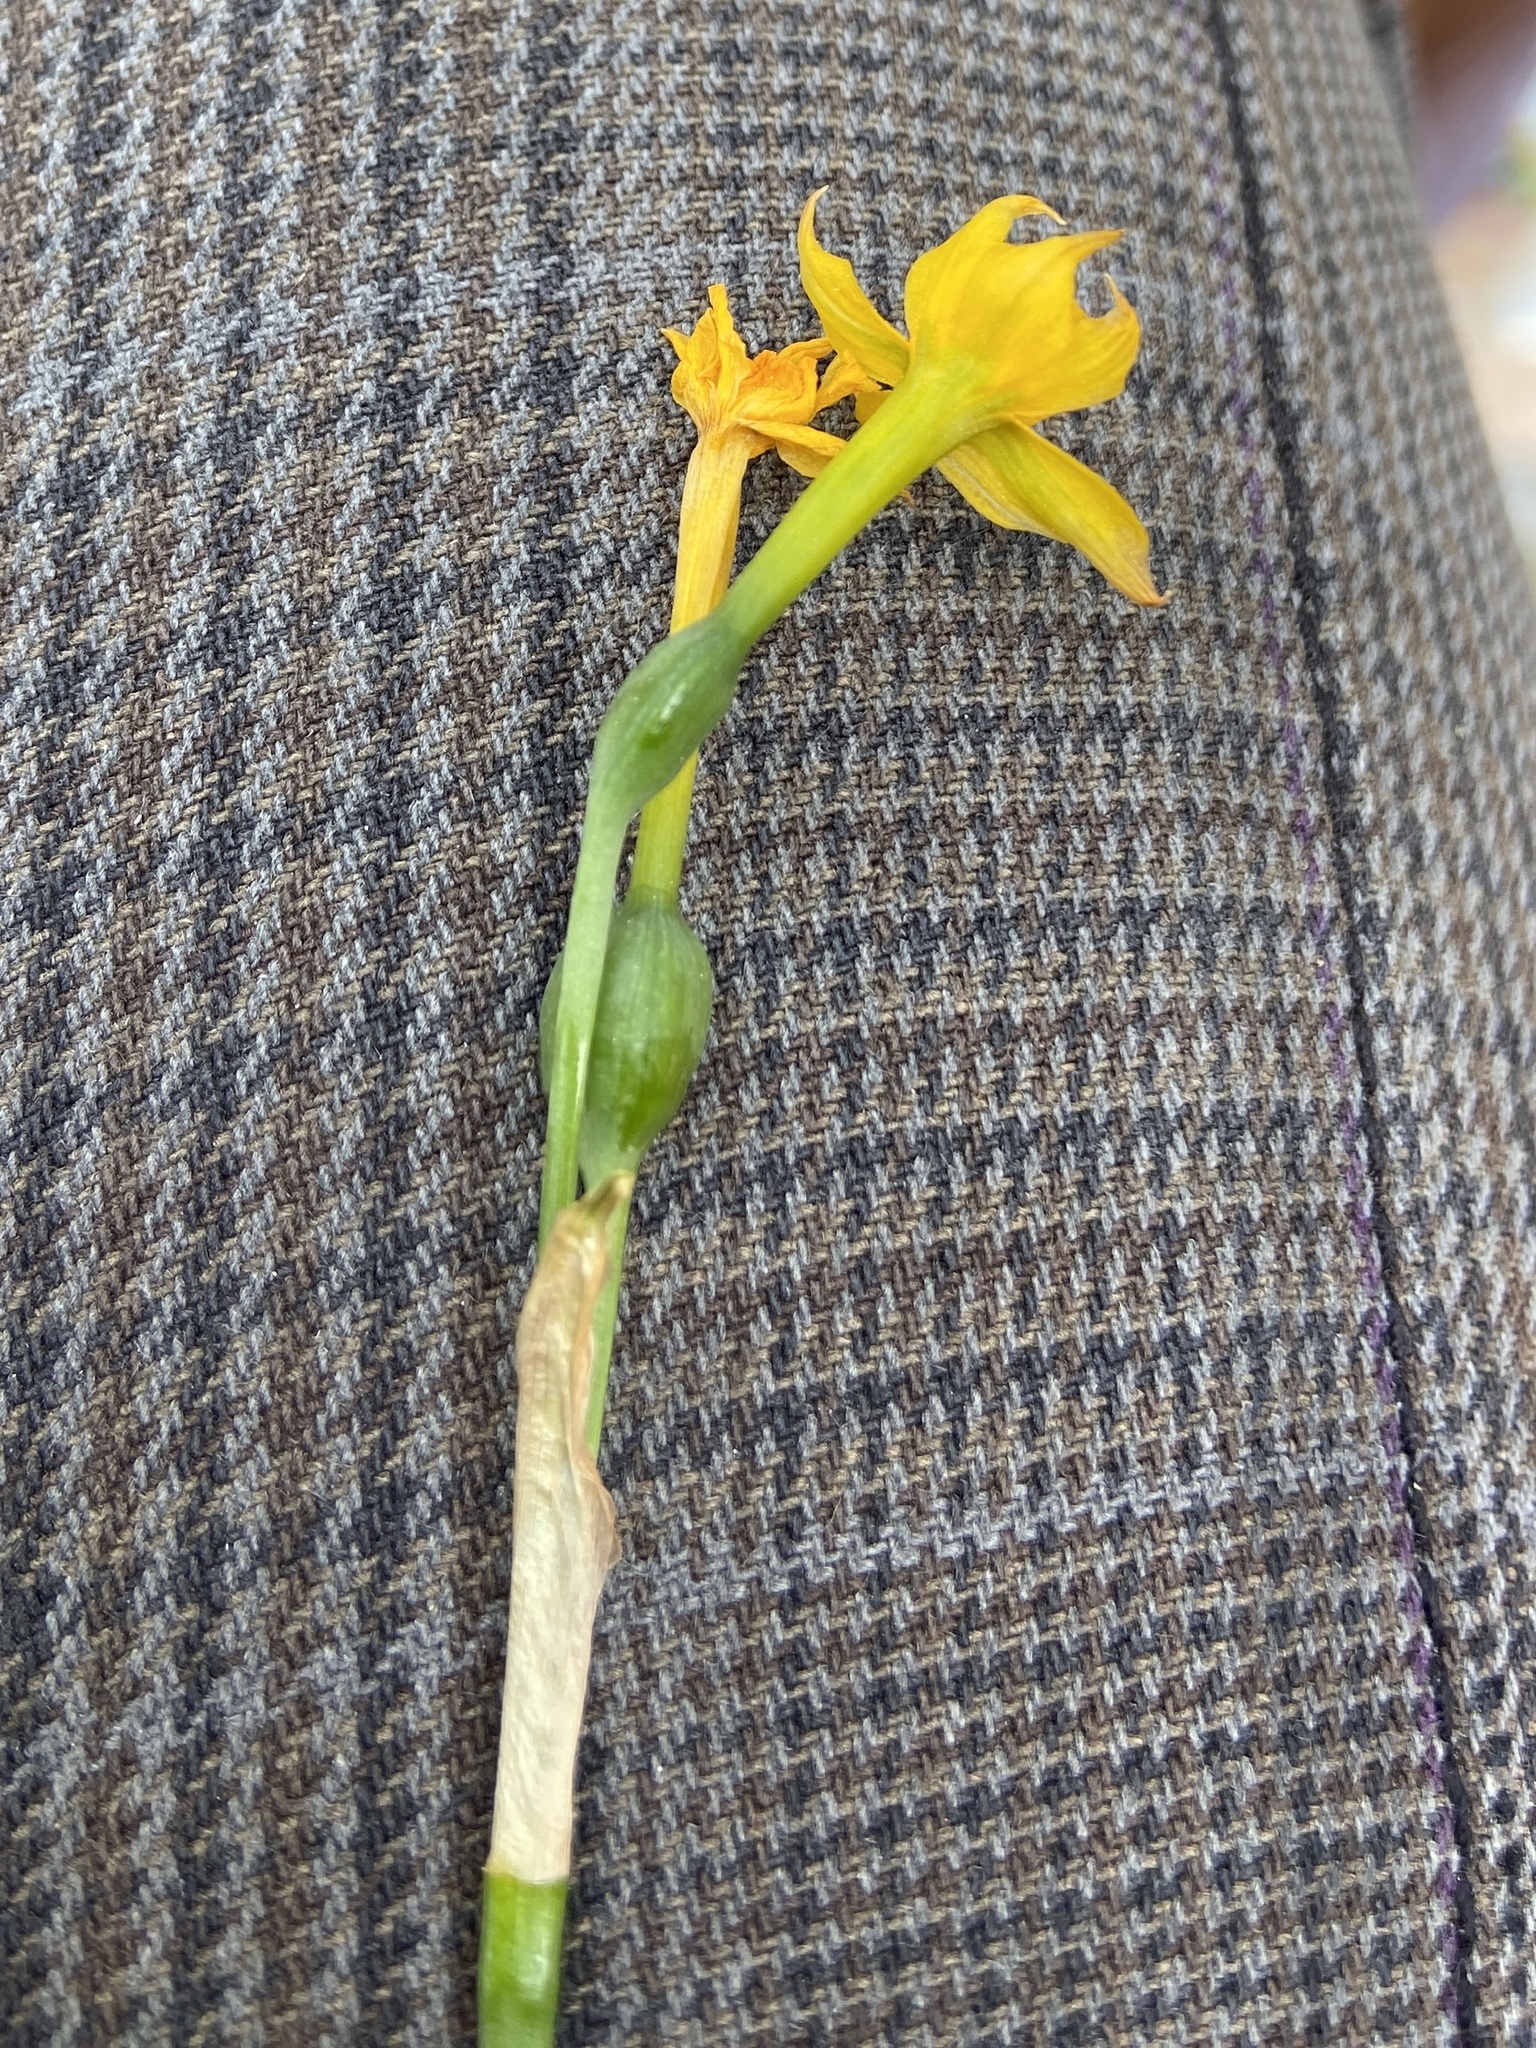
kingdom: Plantae
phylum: Tracheophyta
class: Liliopsida
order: Asparagales
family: Amaryllidaceae
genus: Narcissus
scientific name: Narcissus assoanus
